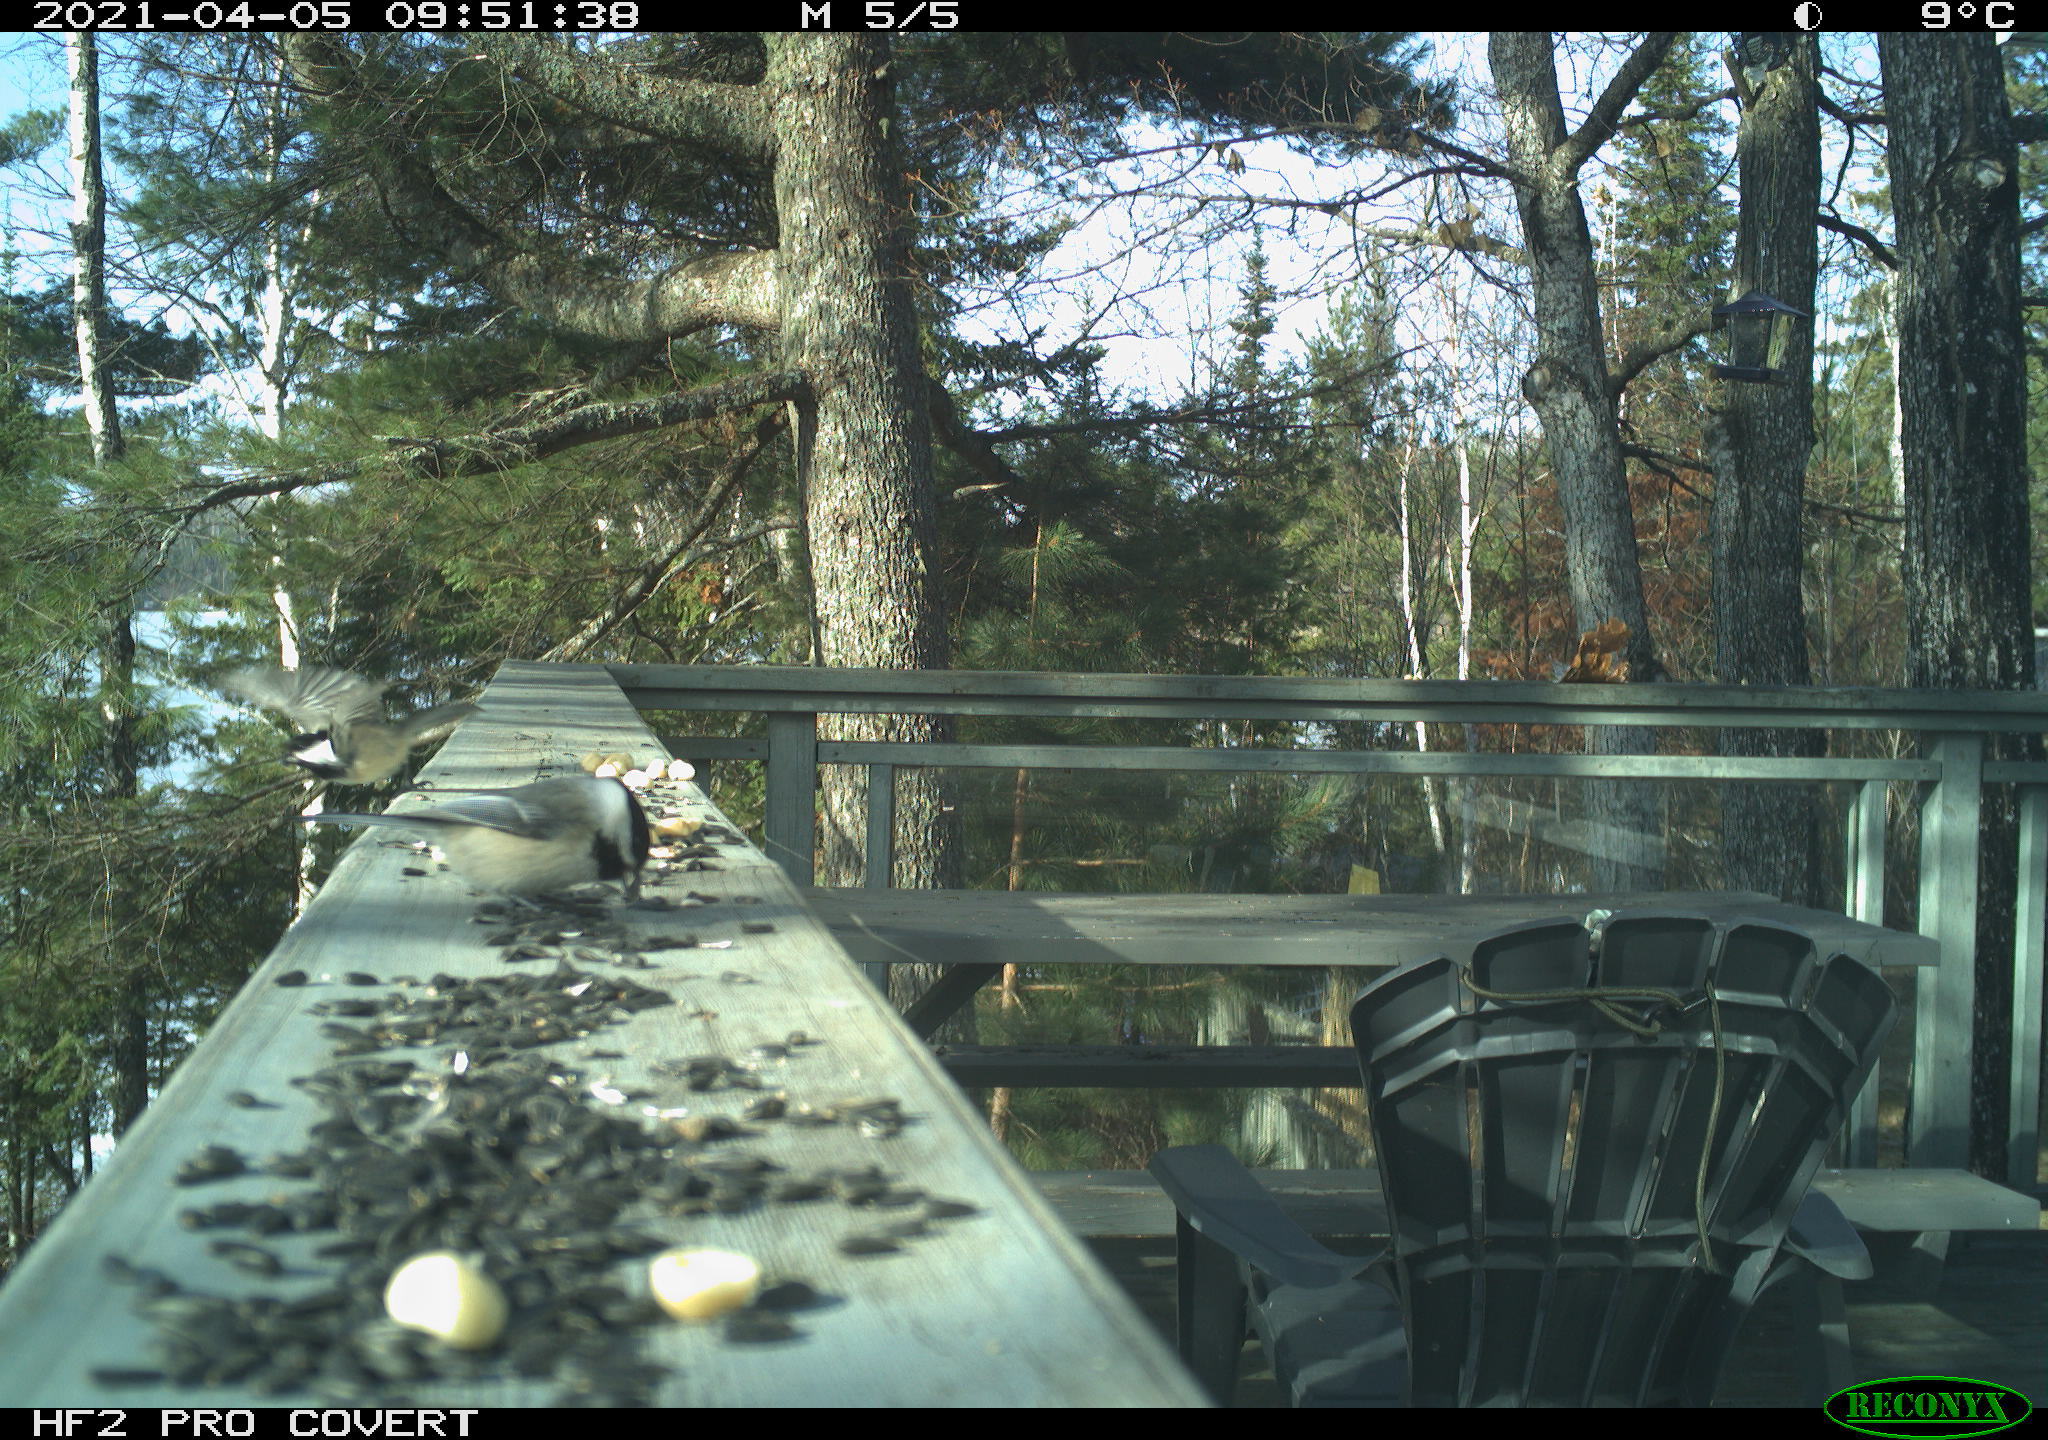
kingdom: Animalia
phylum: Chordata
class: Aves
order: Passeriformes
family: Paridae
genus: Poecile
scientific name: Poecile atricapillus
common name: Black-capped chickadee
